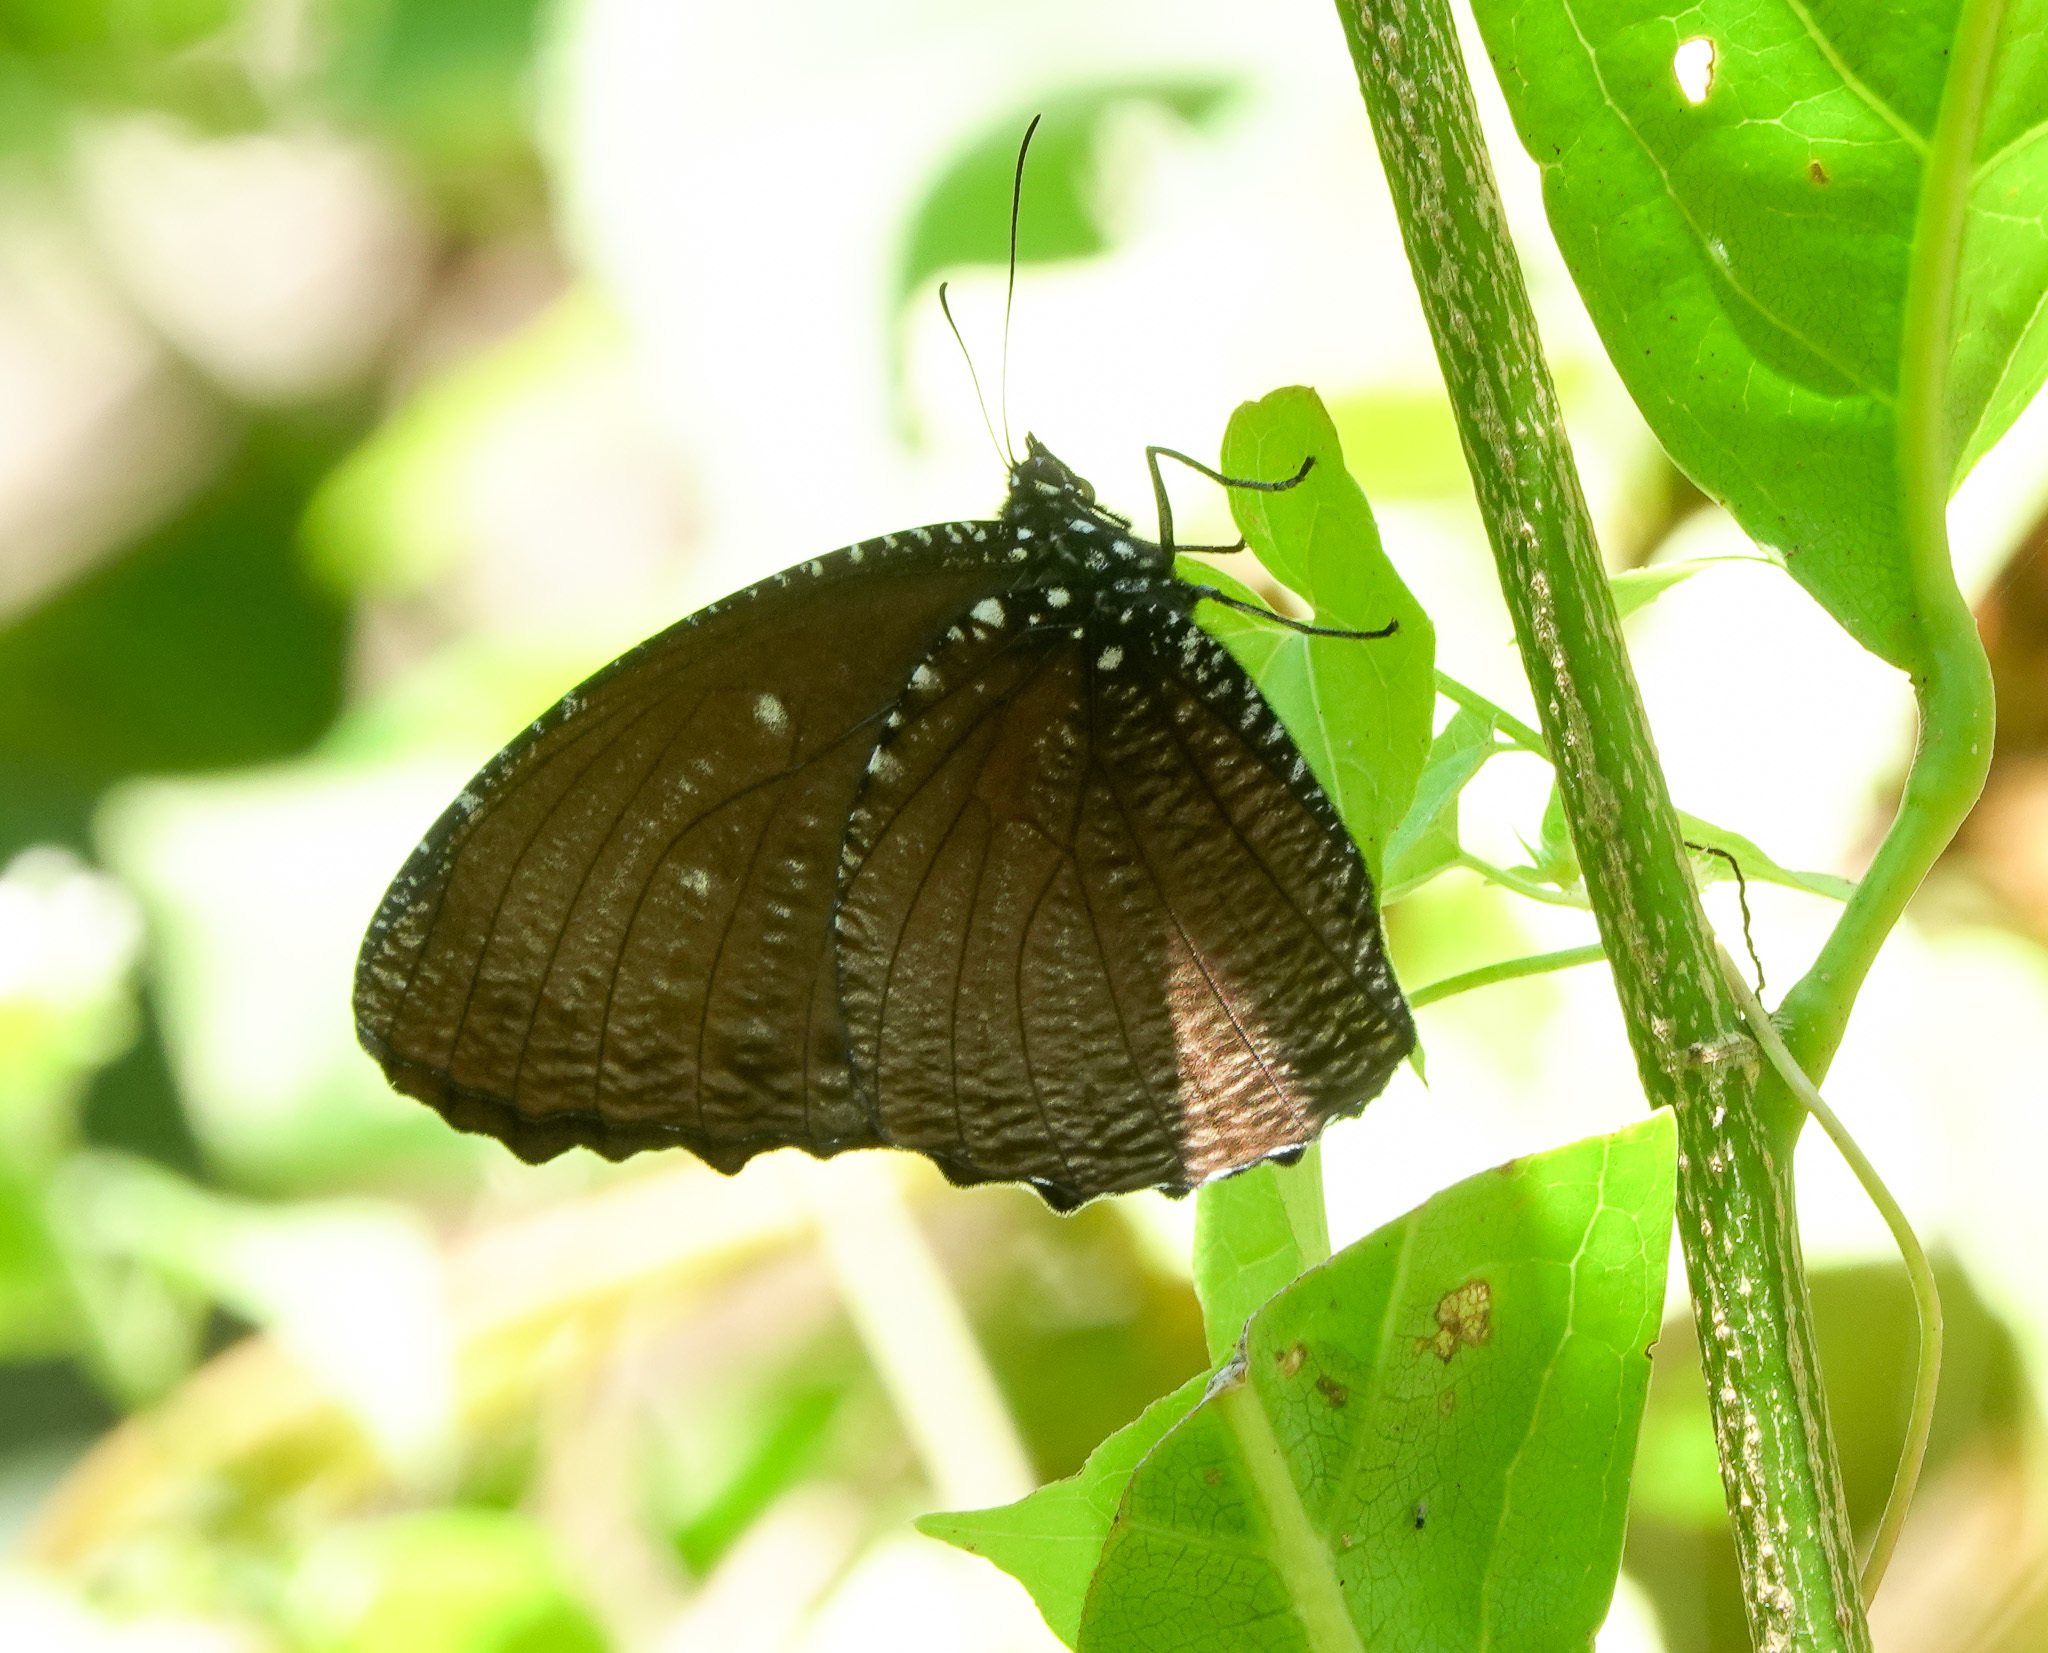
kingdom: Animalia
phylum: Arthropoda
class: Insecta
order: Lepidoptera
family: Nymphalidae
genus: Elymnias
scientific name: Elymnias malelas
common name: Spotted palmfly
